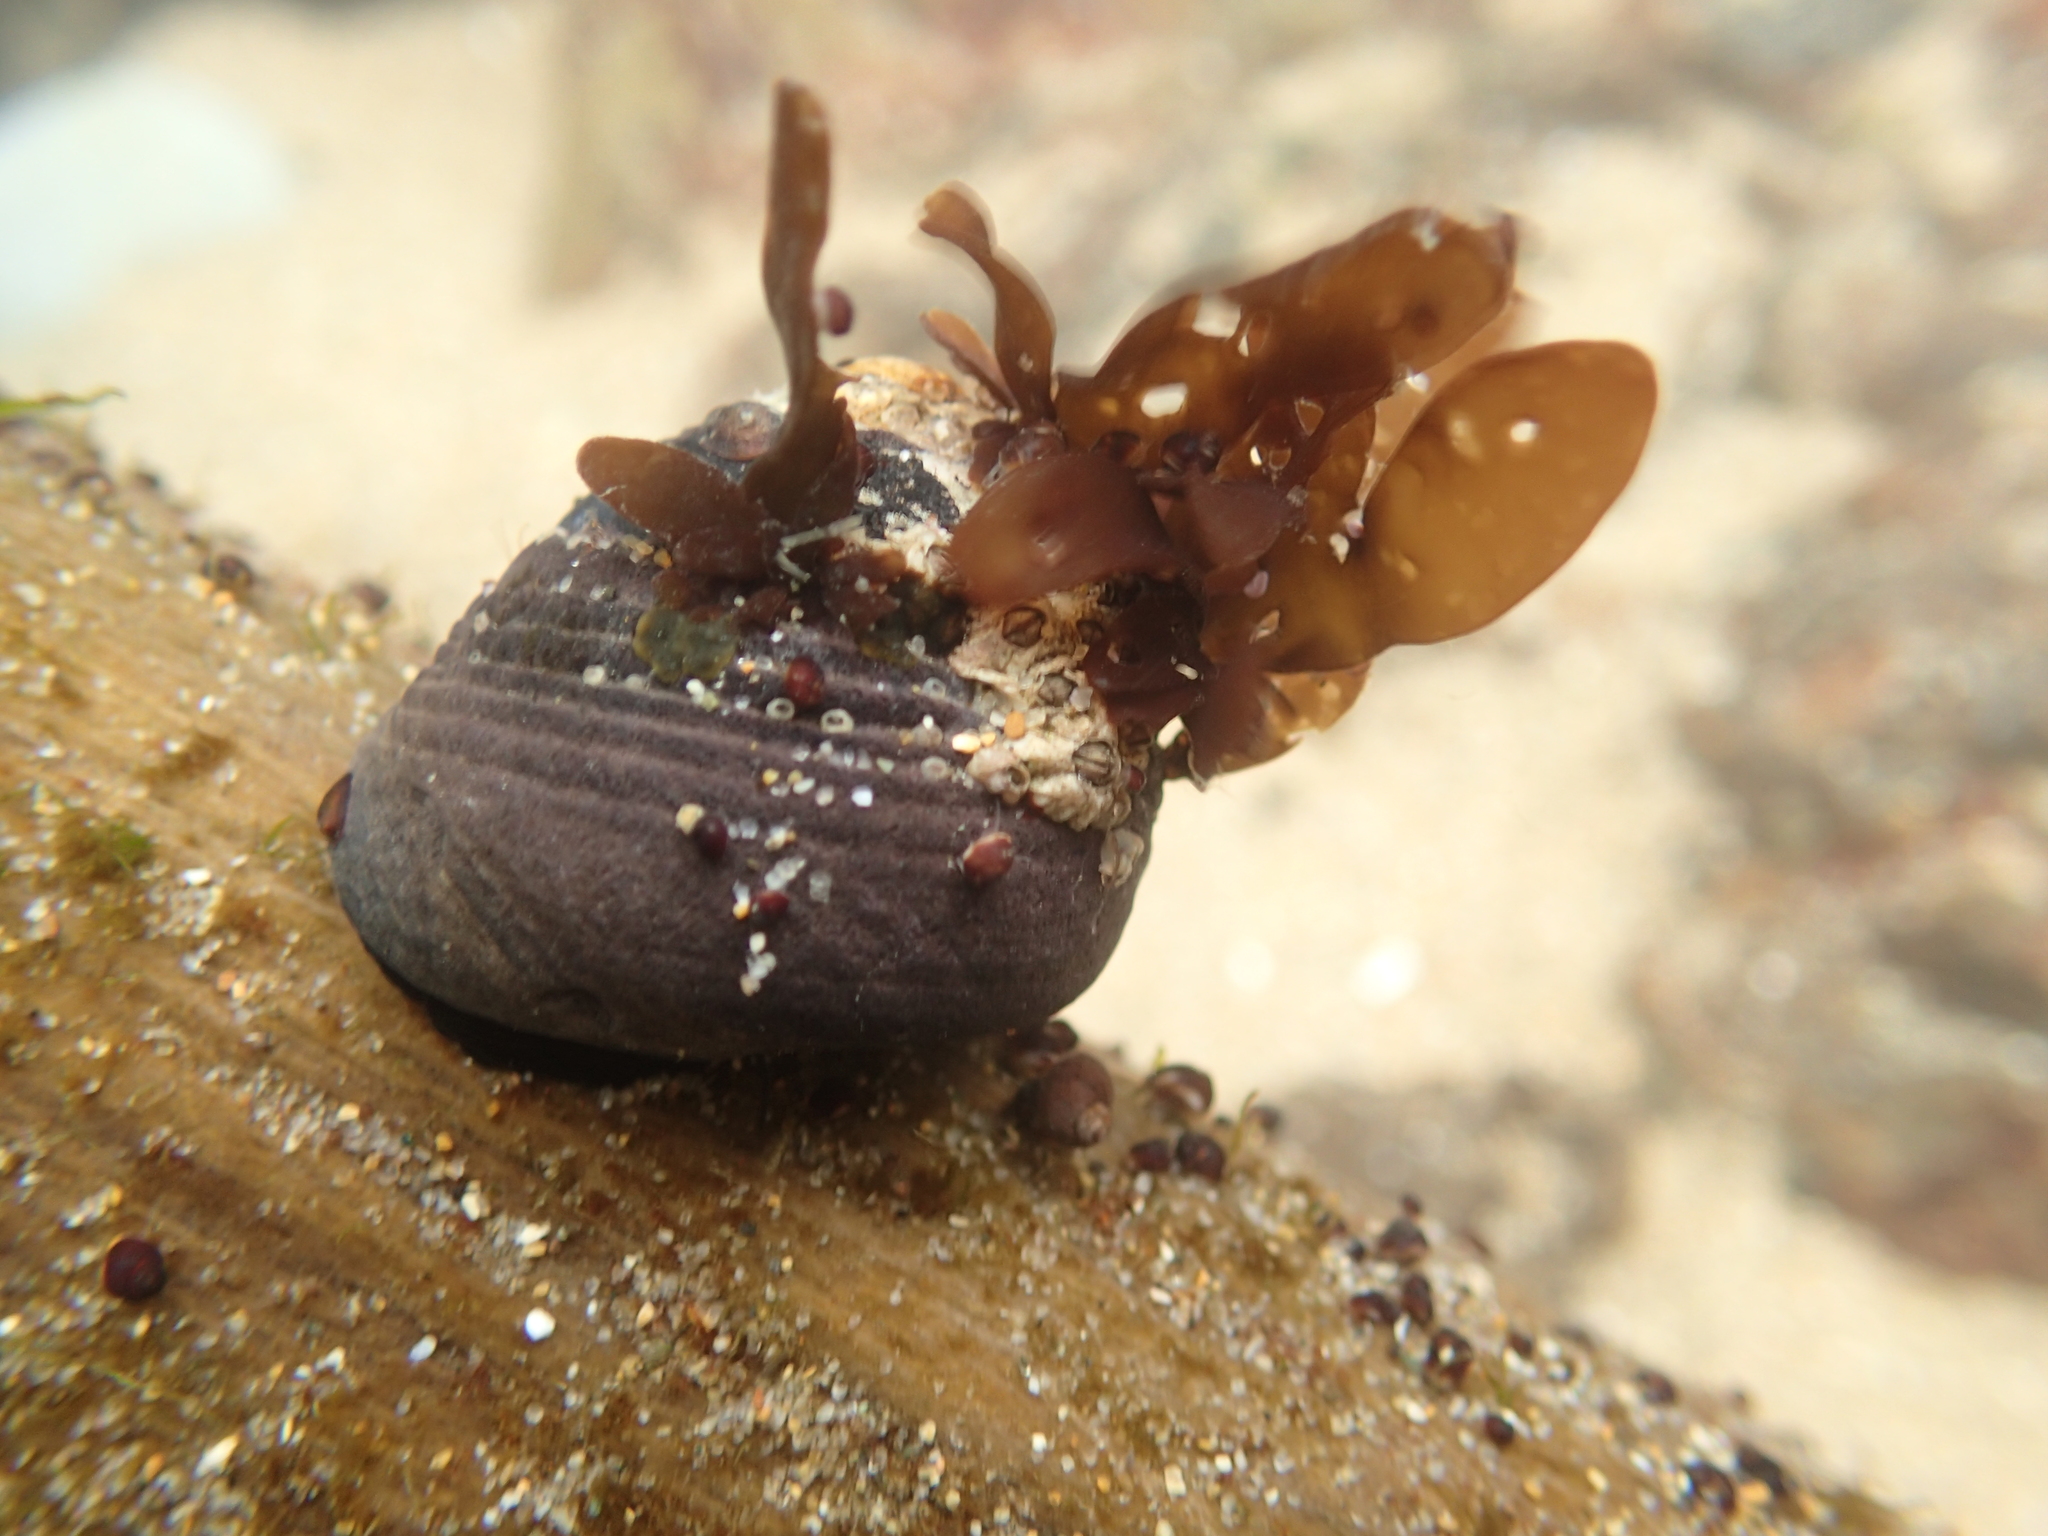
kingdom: Animalia
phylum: Mollusca
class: Gastropoda
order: Trochida
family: Tegulidae
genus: Tegula
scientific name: Tegula funebralis
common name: Black tegula
